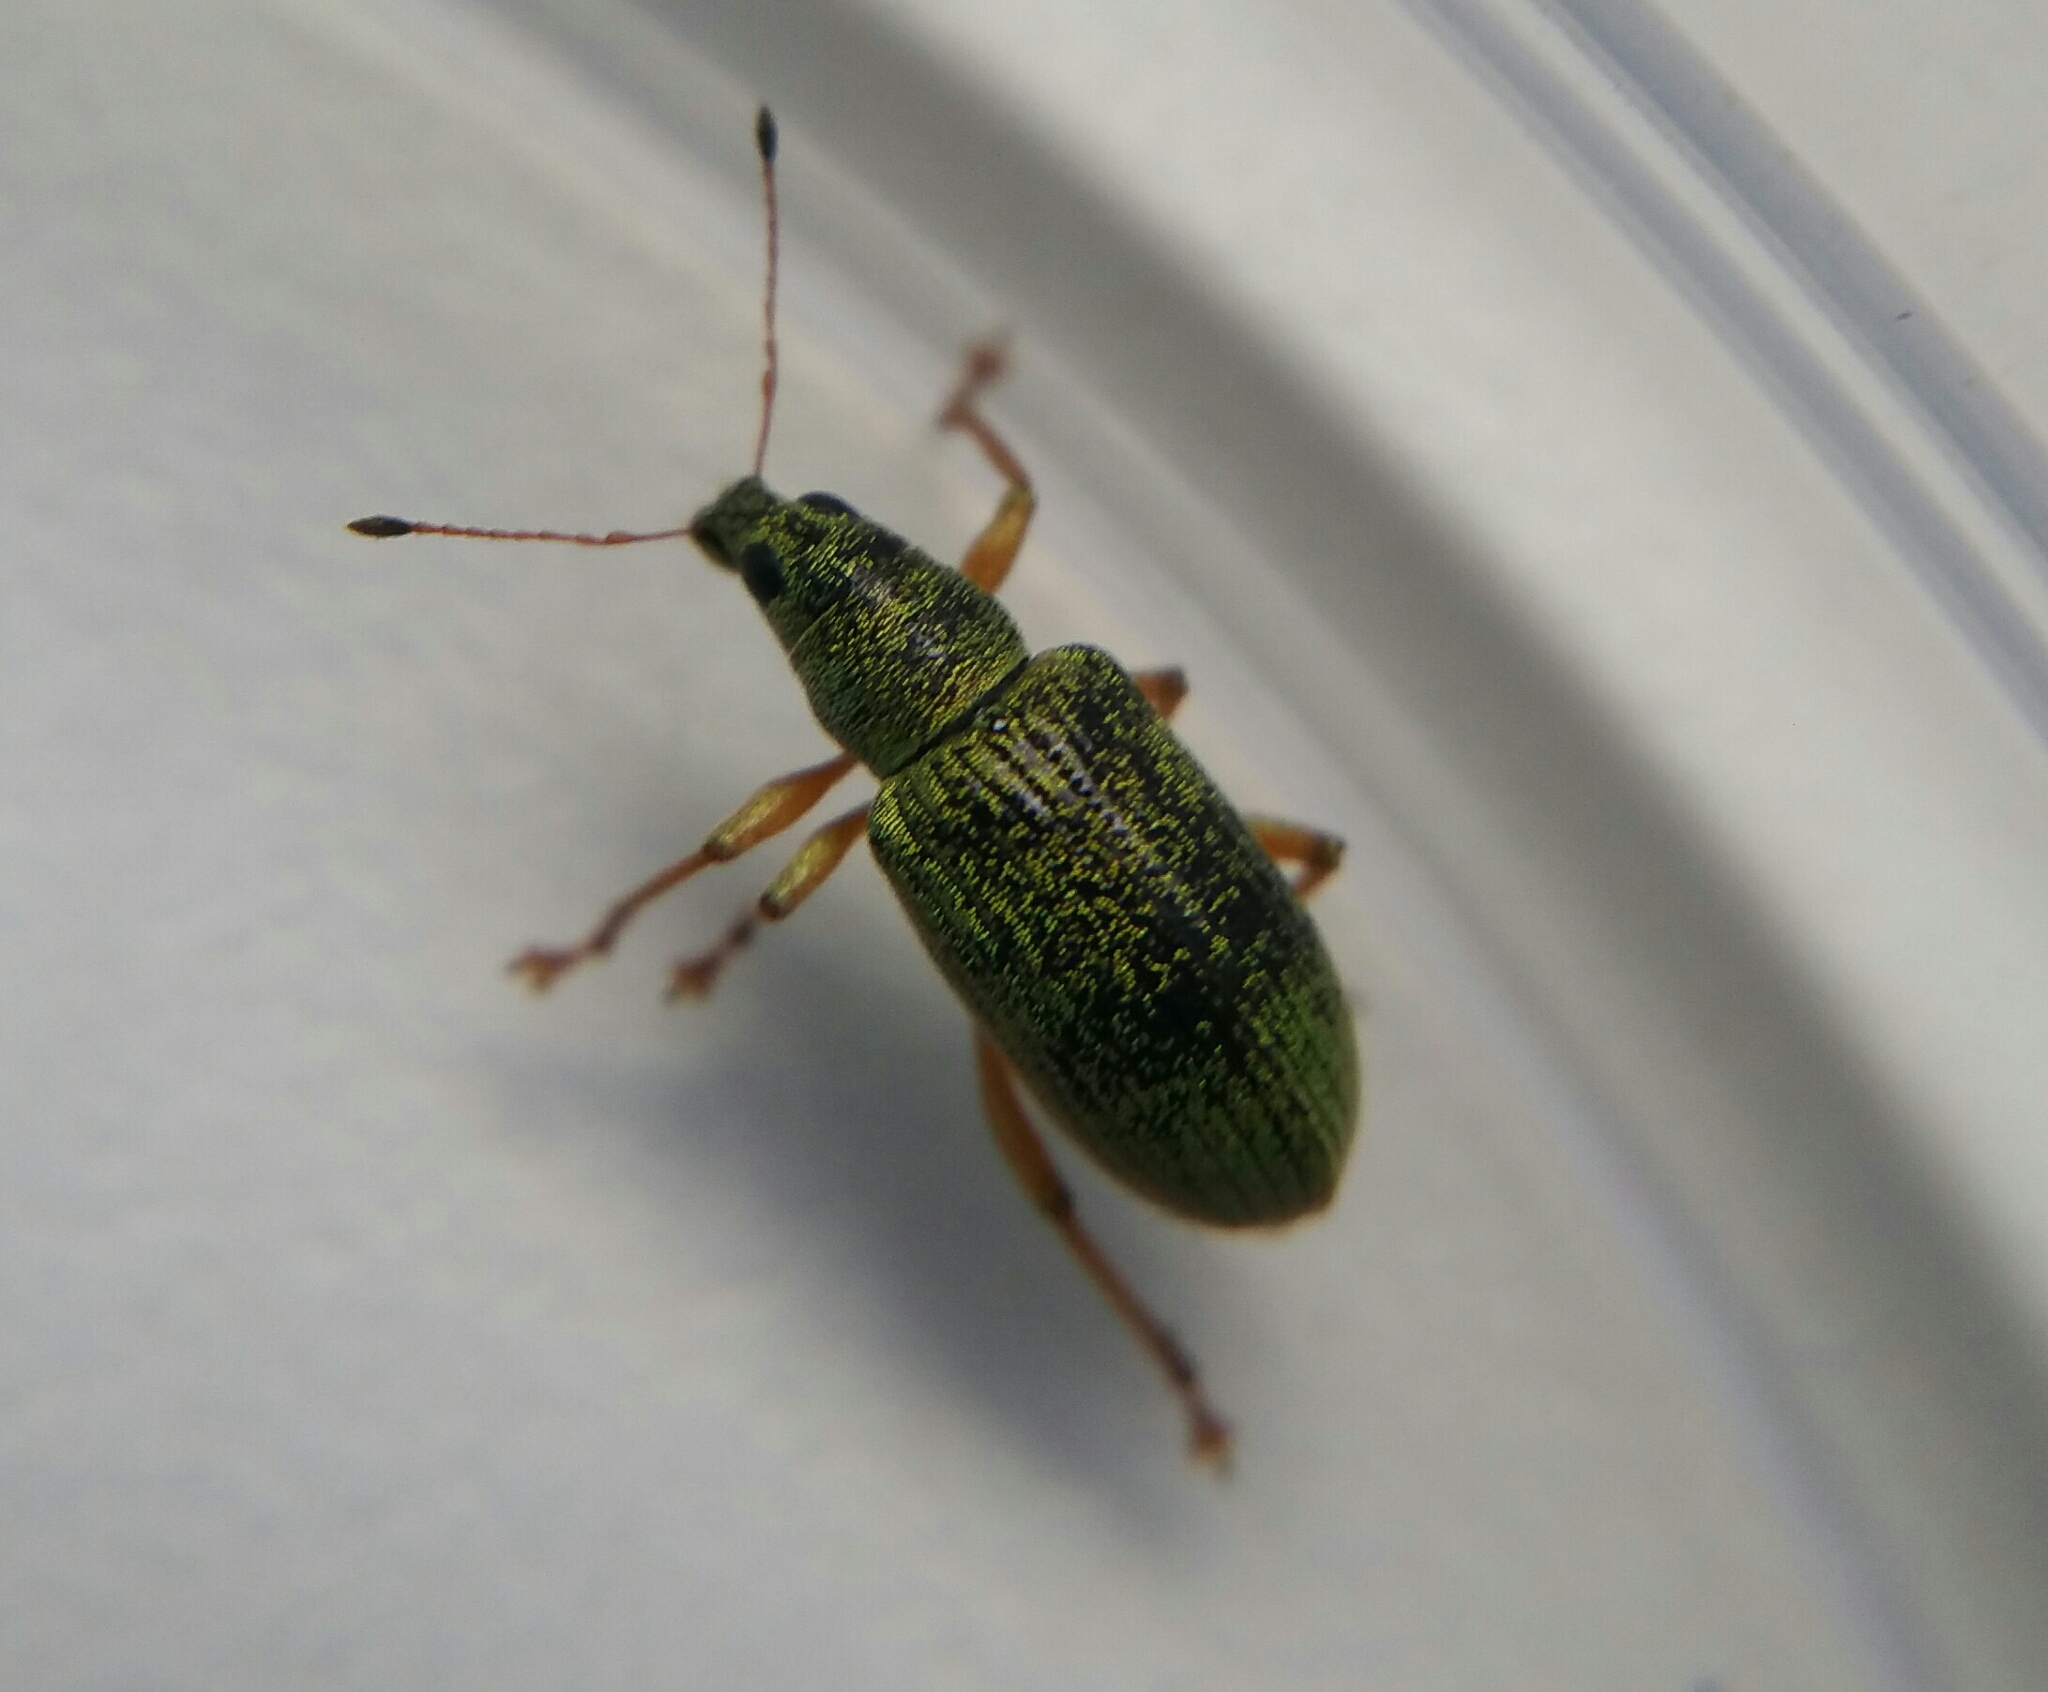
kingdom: Animalia
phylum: Arthropoda
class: Insecta
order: Coleoptera
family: Curculionidae
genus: Polydrusus
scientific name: Polydrusus formosus
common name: Weevil
